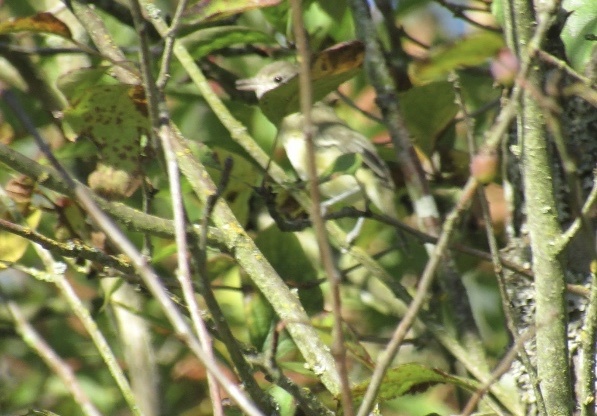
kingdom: Animalia
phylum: Chordata
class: Aves
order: Passeriformes
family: Vireonidae
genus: Vireo
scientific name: Vireo bellii
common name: Bell's vireo
